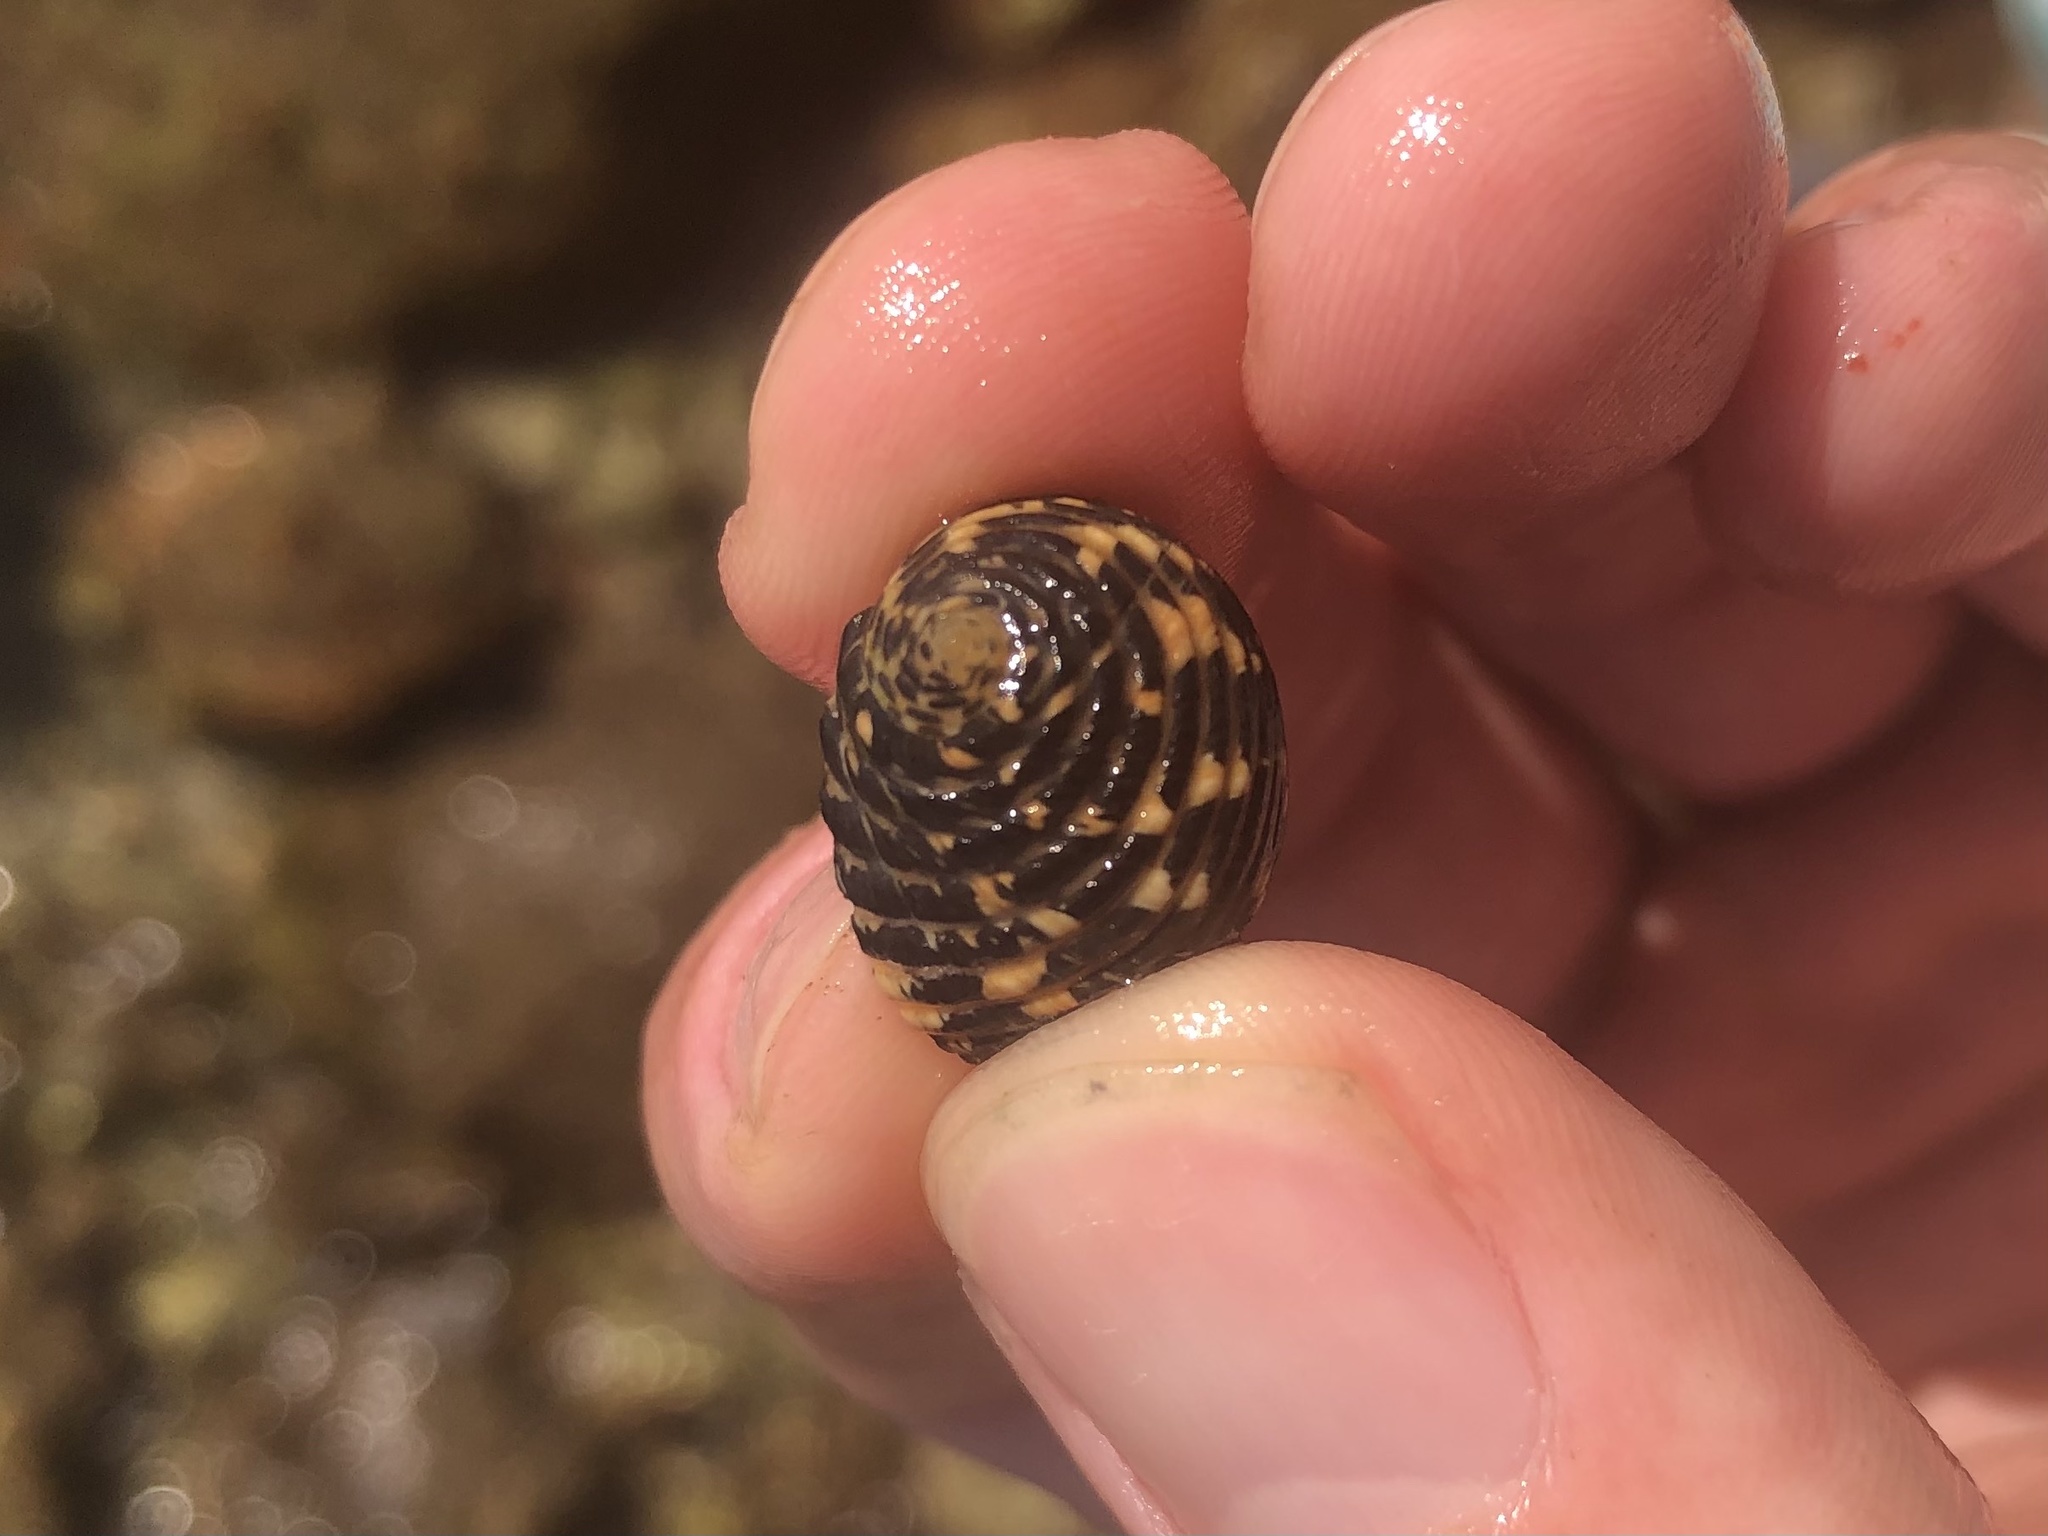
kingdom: Animalia
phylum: Mollusca
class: Gastropoda
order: Cycloneritida
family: Neritidae
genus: Nerita
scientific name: Nerita fulgurans
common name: Antillean nerite
